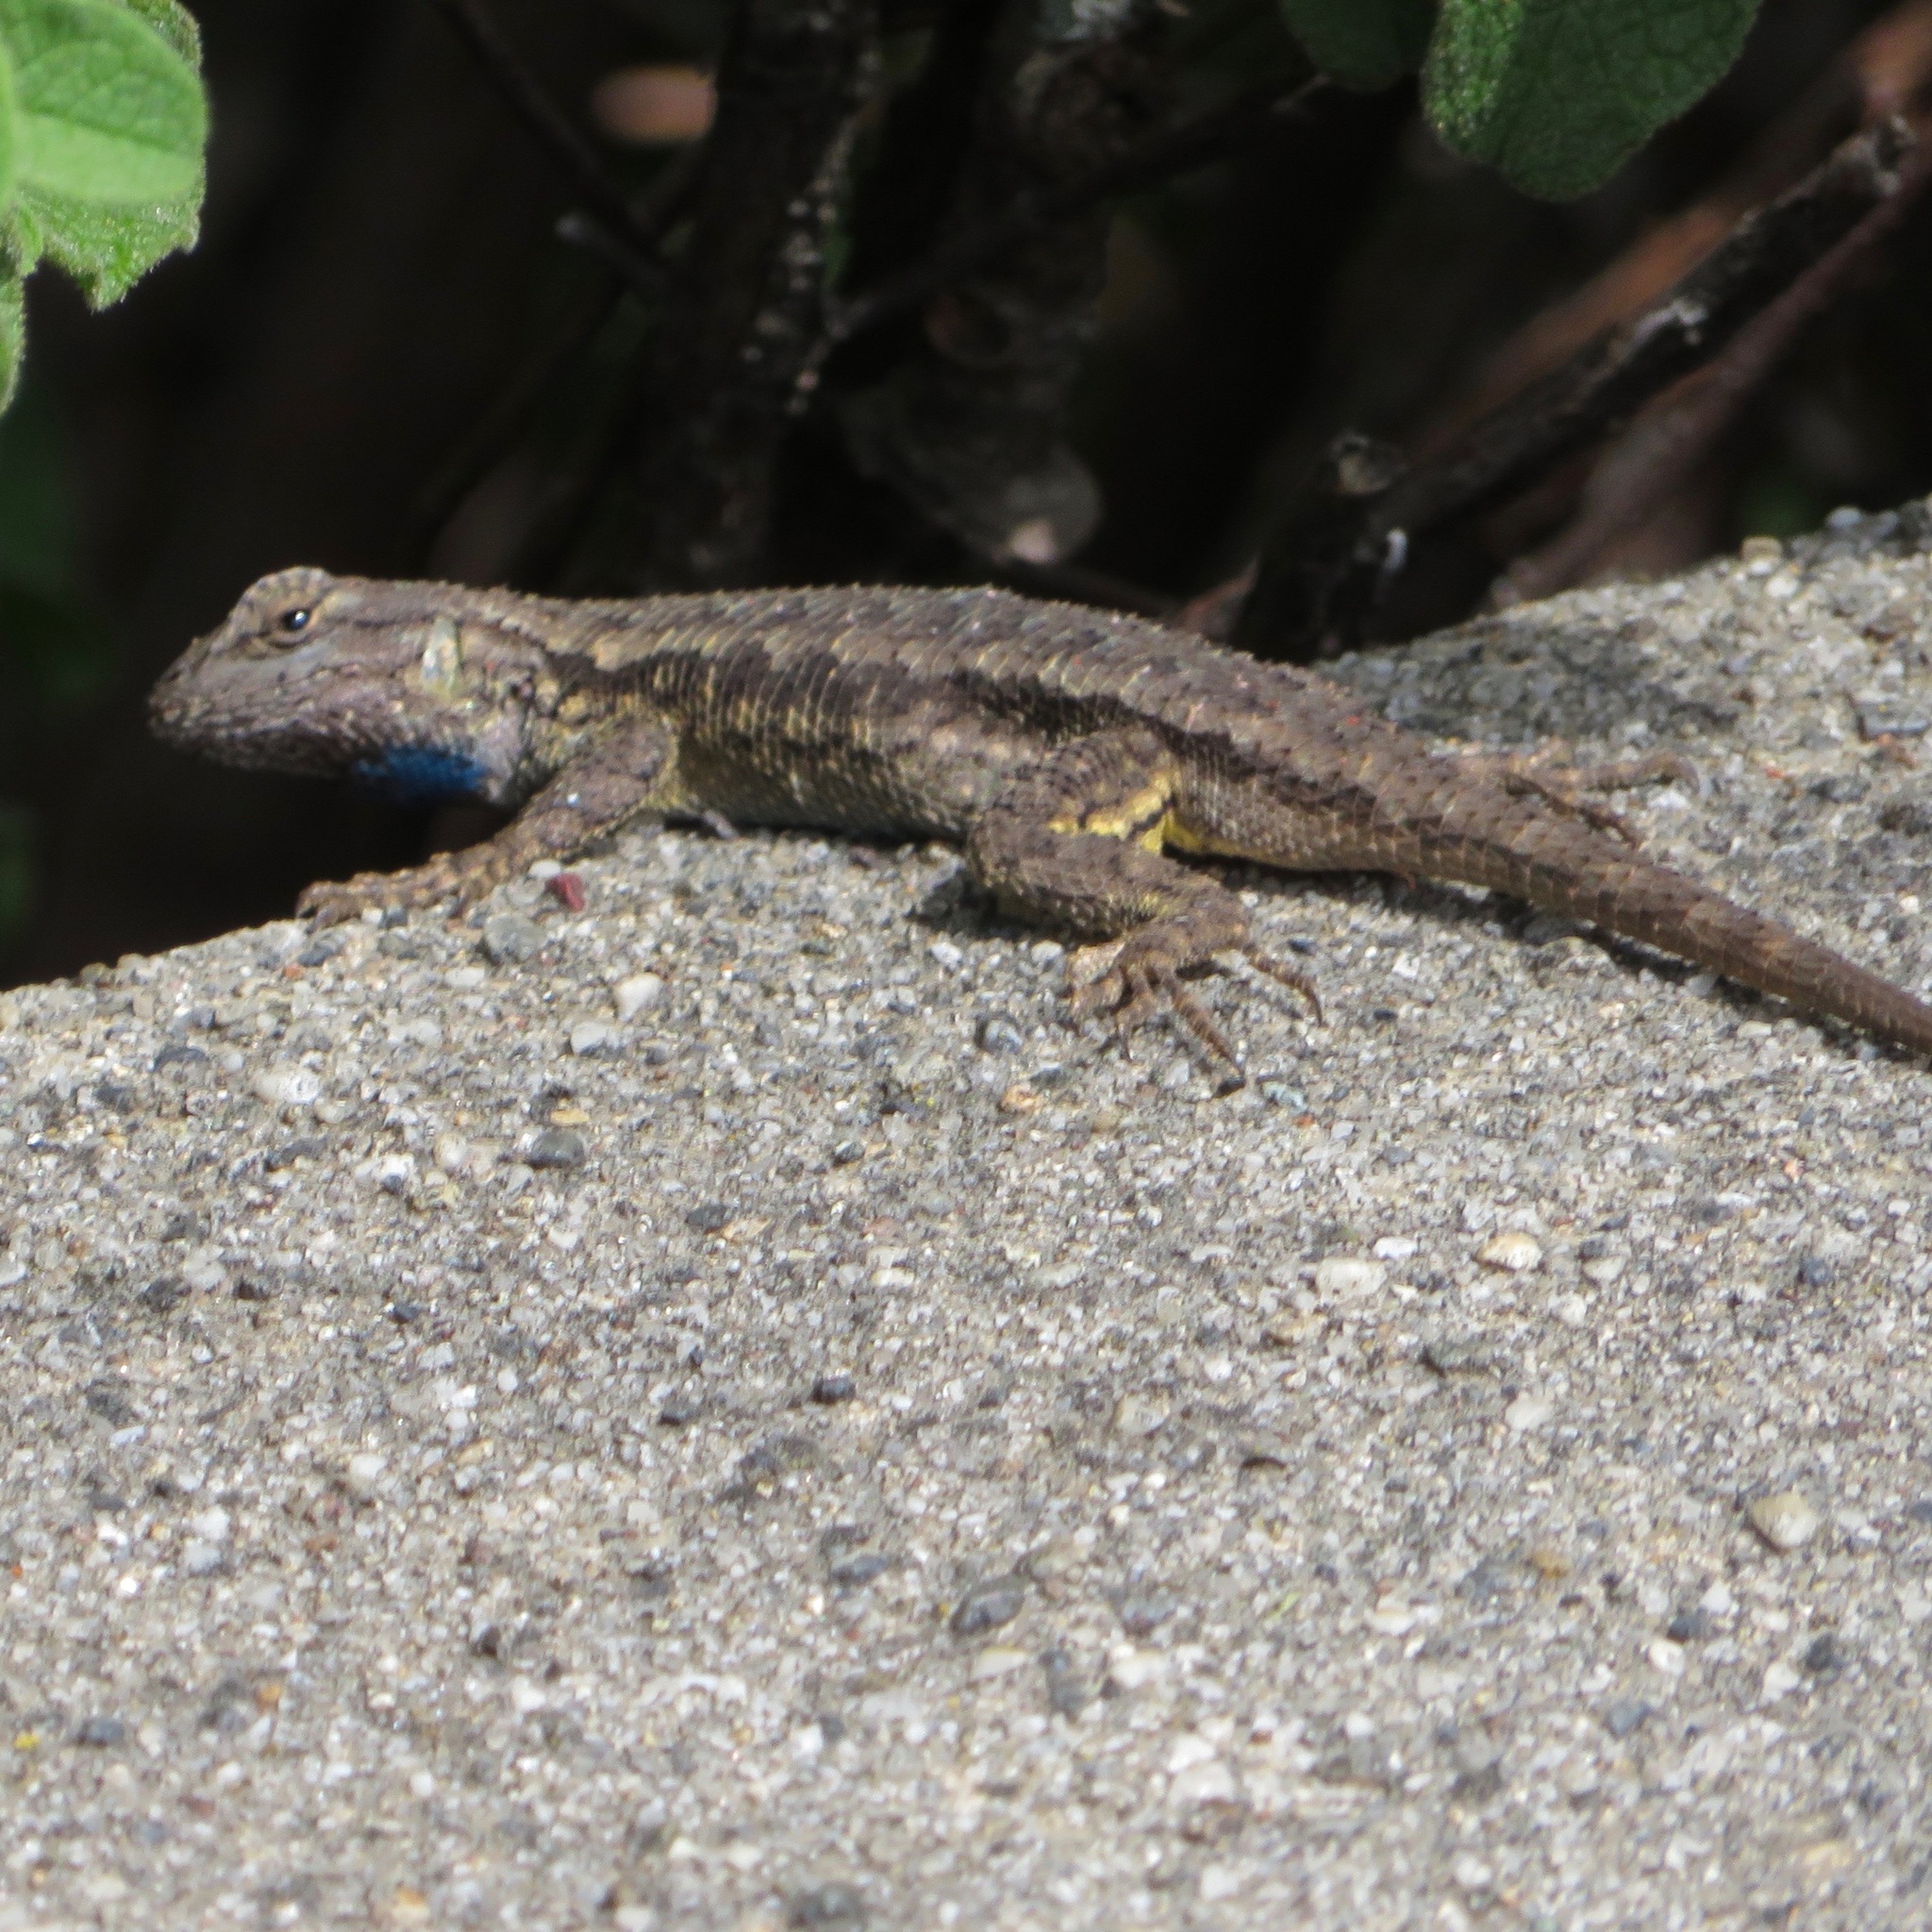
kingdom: Animalia
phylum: Chordata
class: Squamata
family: Phrynosomatidae
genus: Sceloporus
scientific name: Sceloporus occidentalis
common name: Western fence lizard
